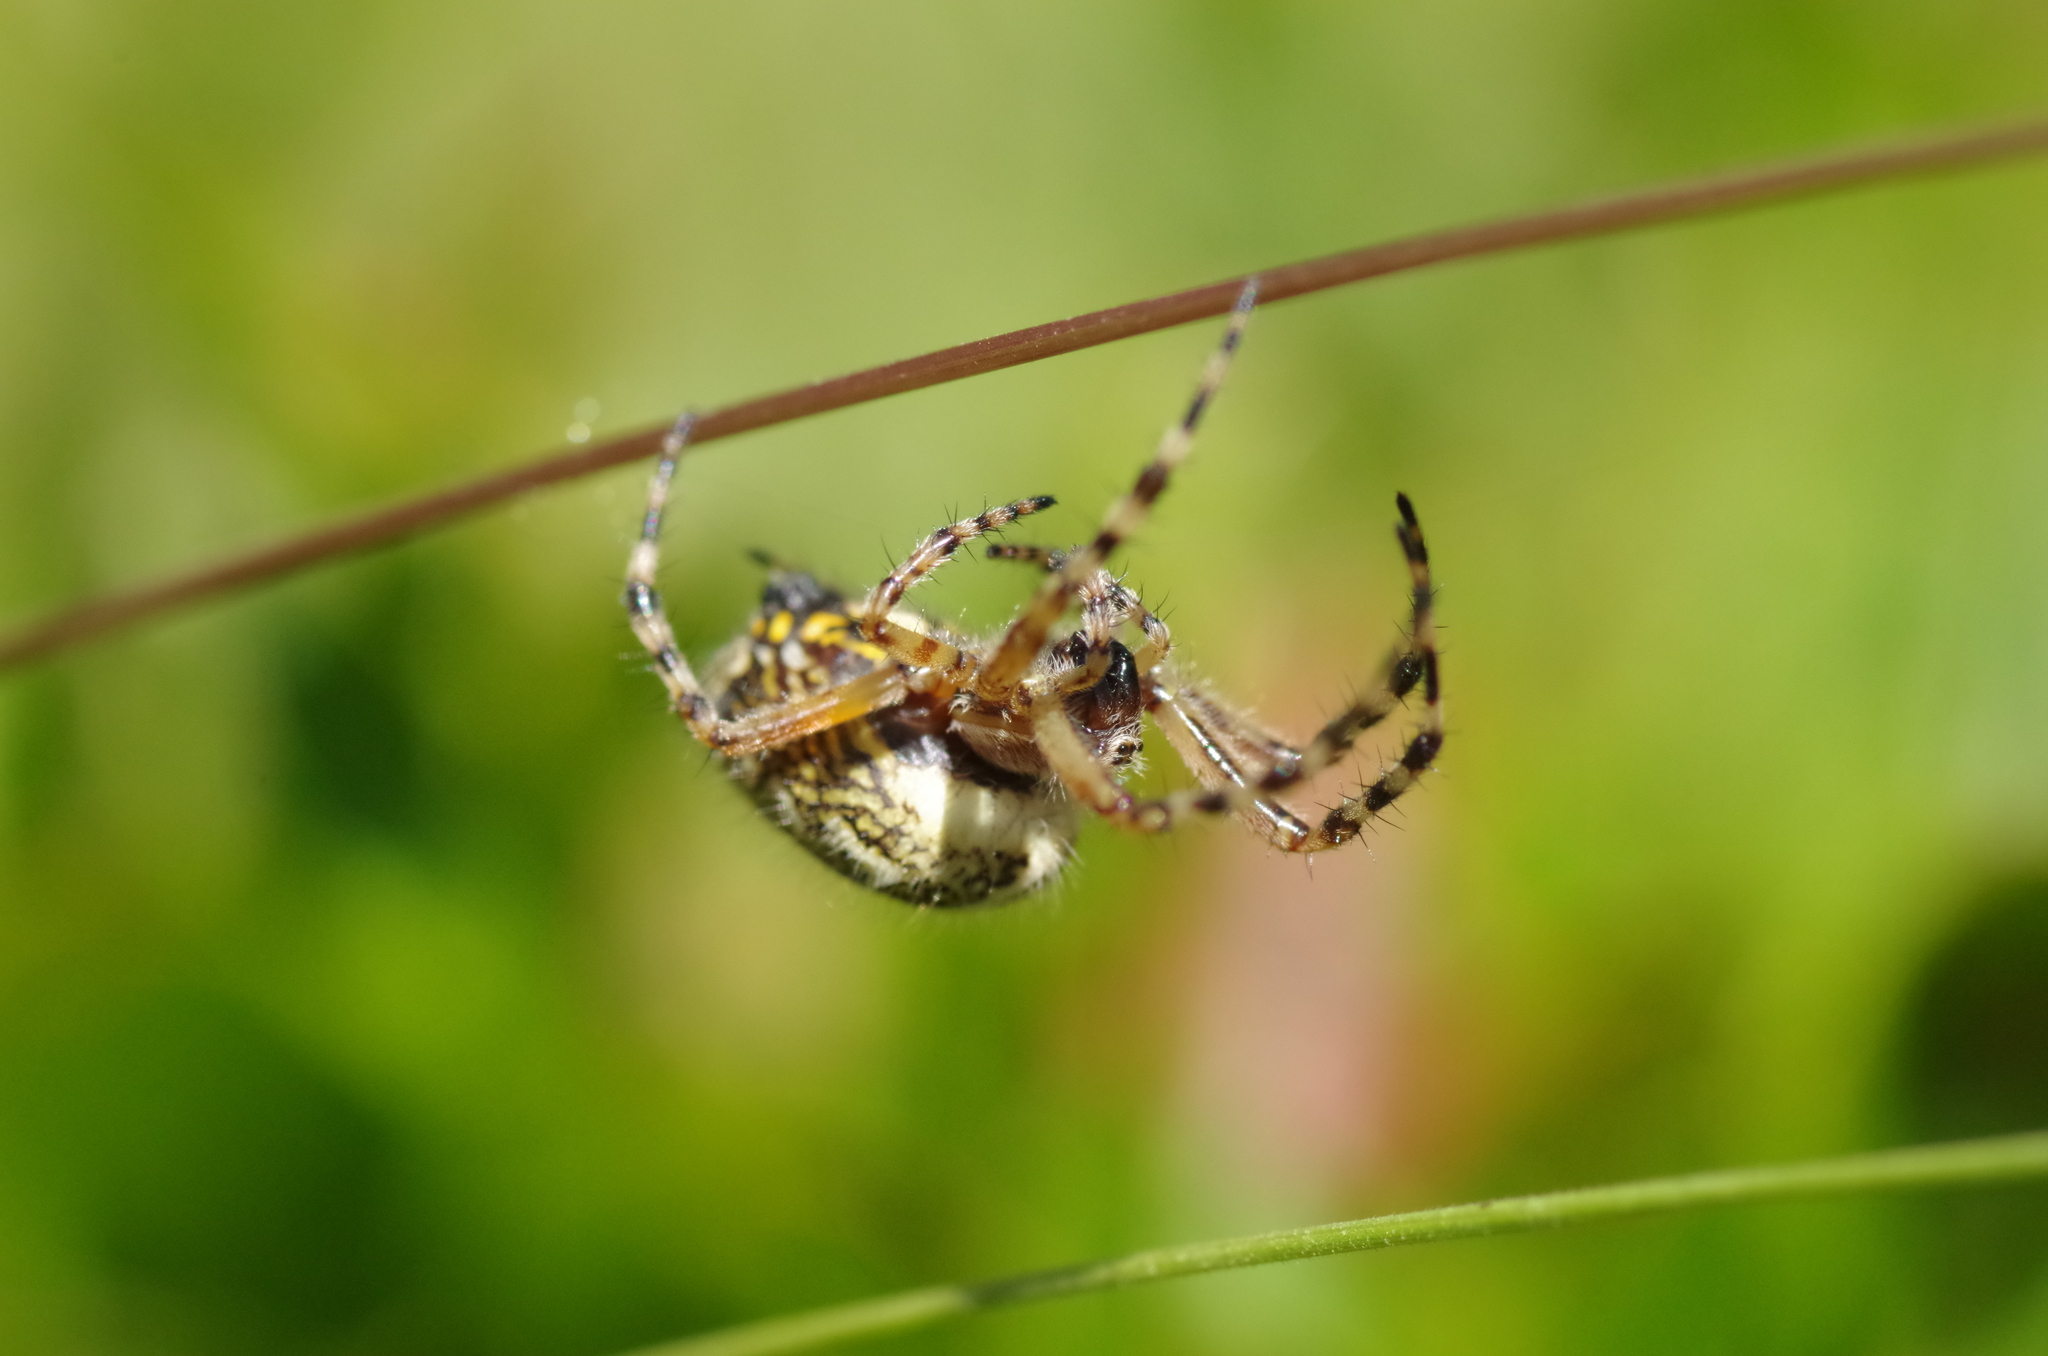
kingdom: Animalia
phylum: Arthropoda
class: Arachnida
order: Araneae
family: Araneidae
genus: Aculepeira
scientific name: Aculepeira ceropegia
